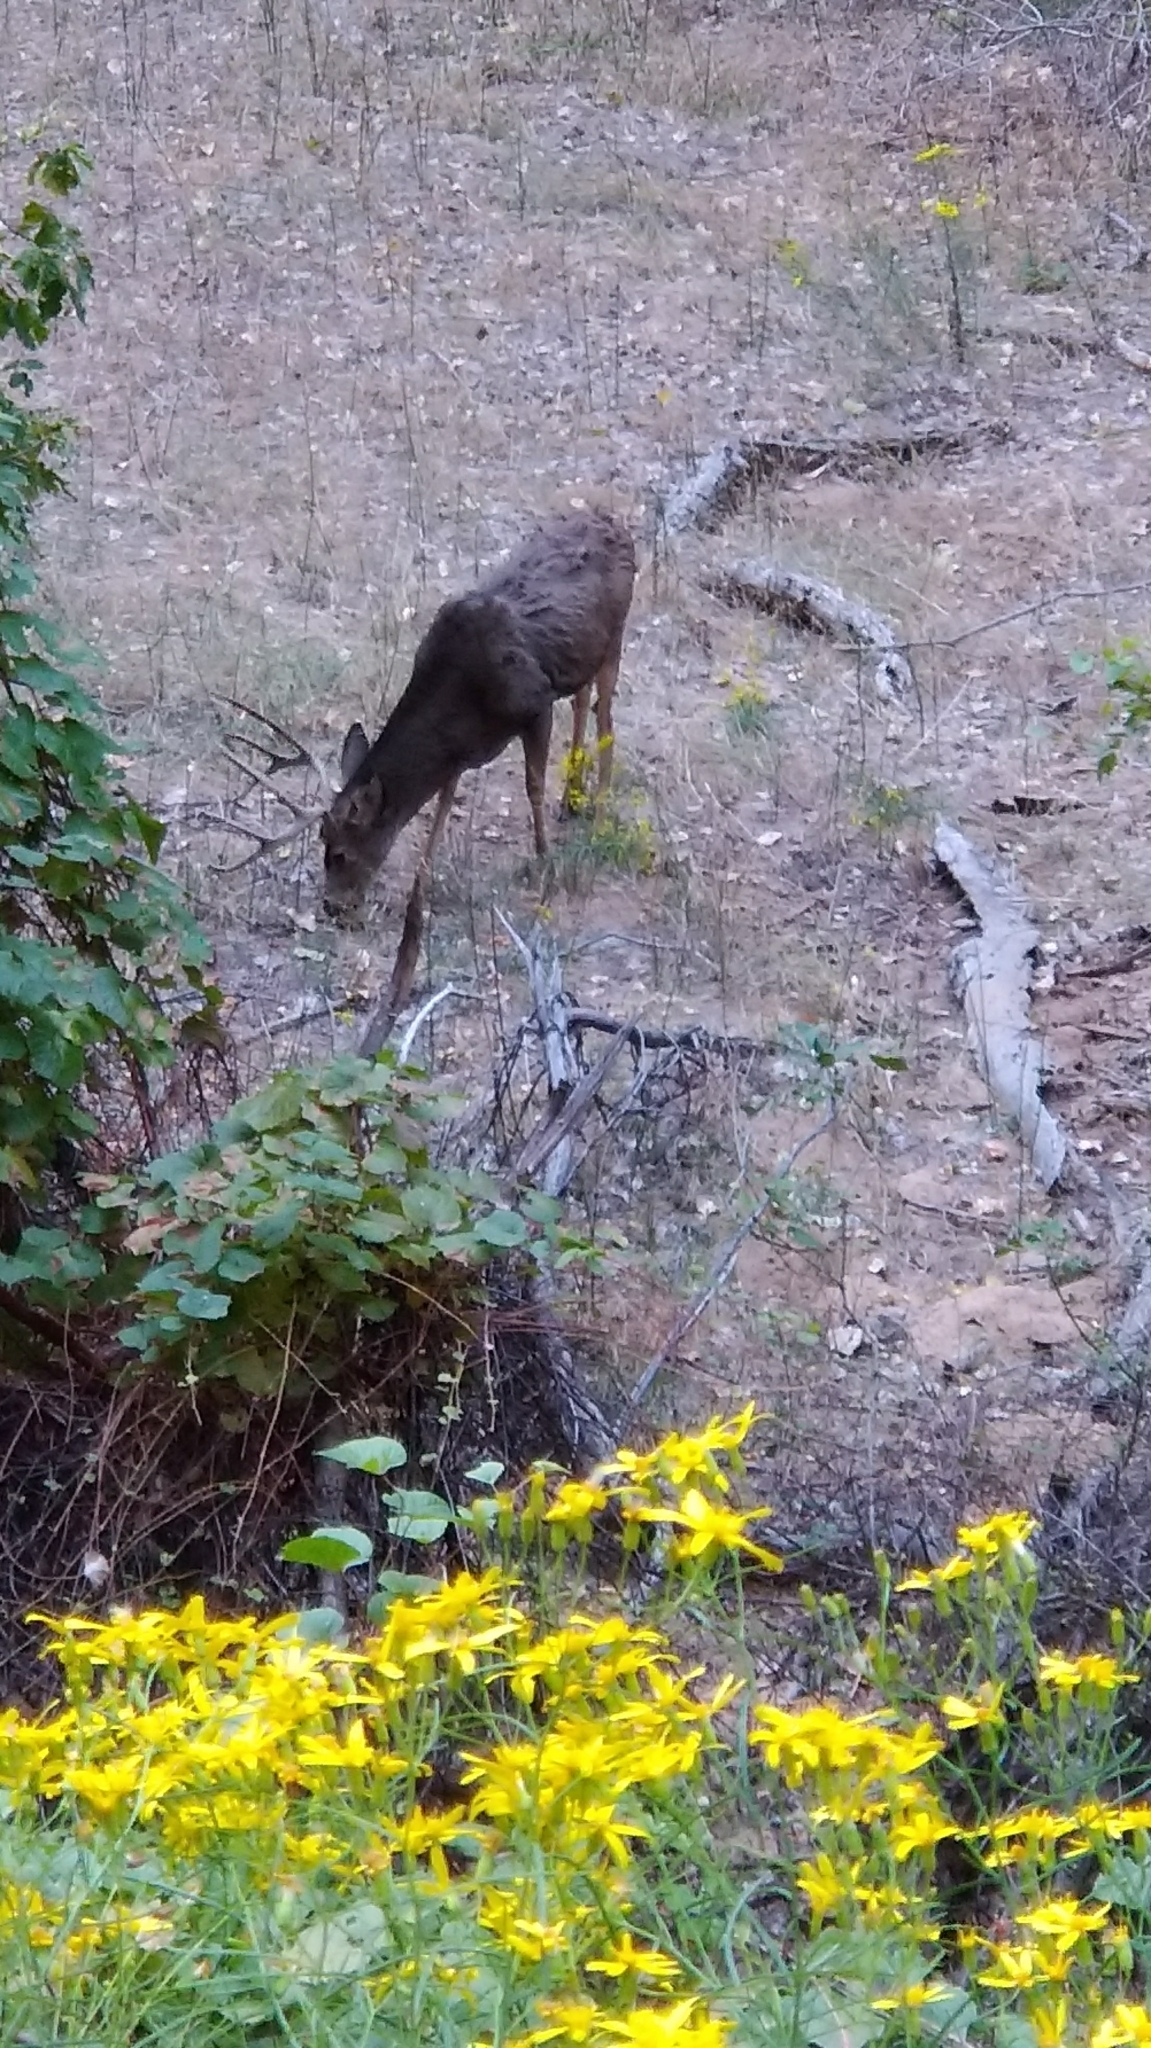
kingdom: Animalia
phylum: Chordata
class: Mammalia
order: Artiodactyla
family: Cervidae
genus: Odocoileus
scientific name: Odocoileus hemionus
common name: Mule deer
